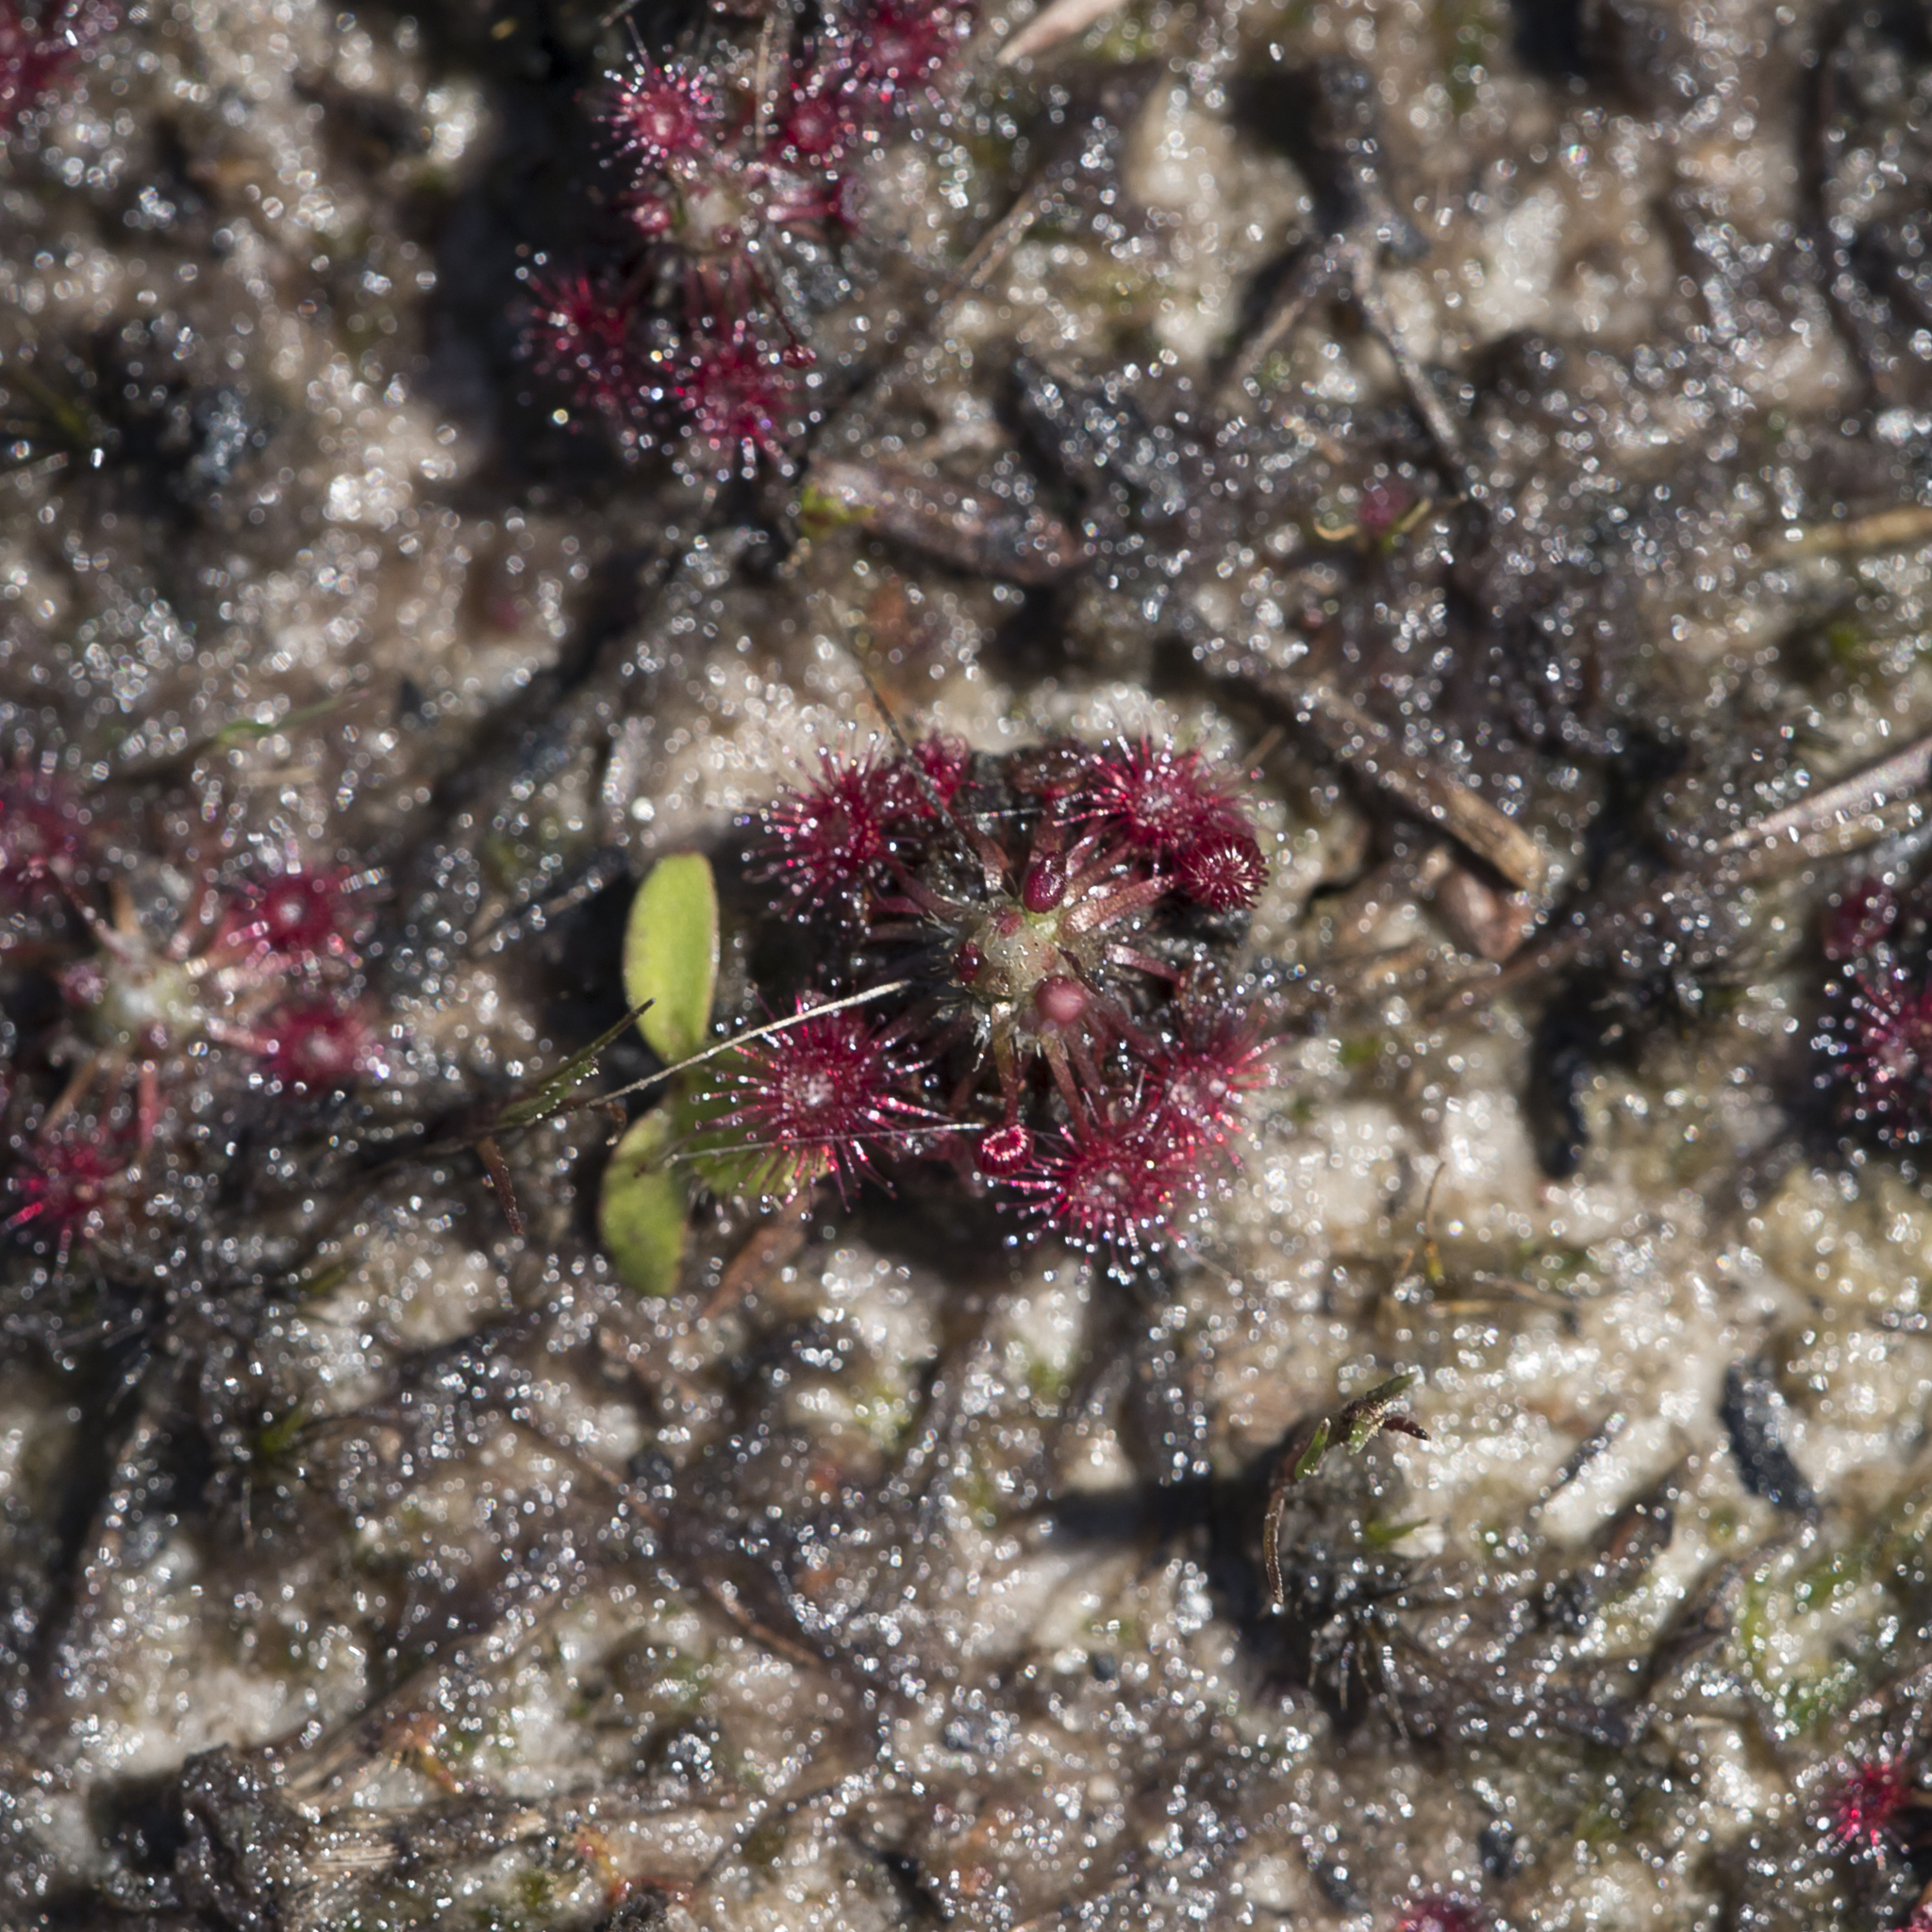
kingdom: Plantae
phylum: Tracheophyta
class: Magnoliopsida
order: Caryophyllales
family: Droseraceae
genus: Drosera
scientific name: Drosera pygmaea
